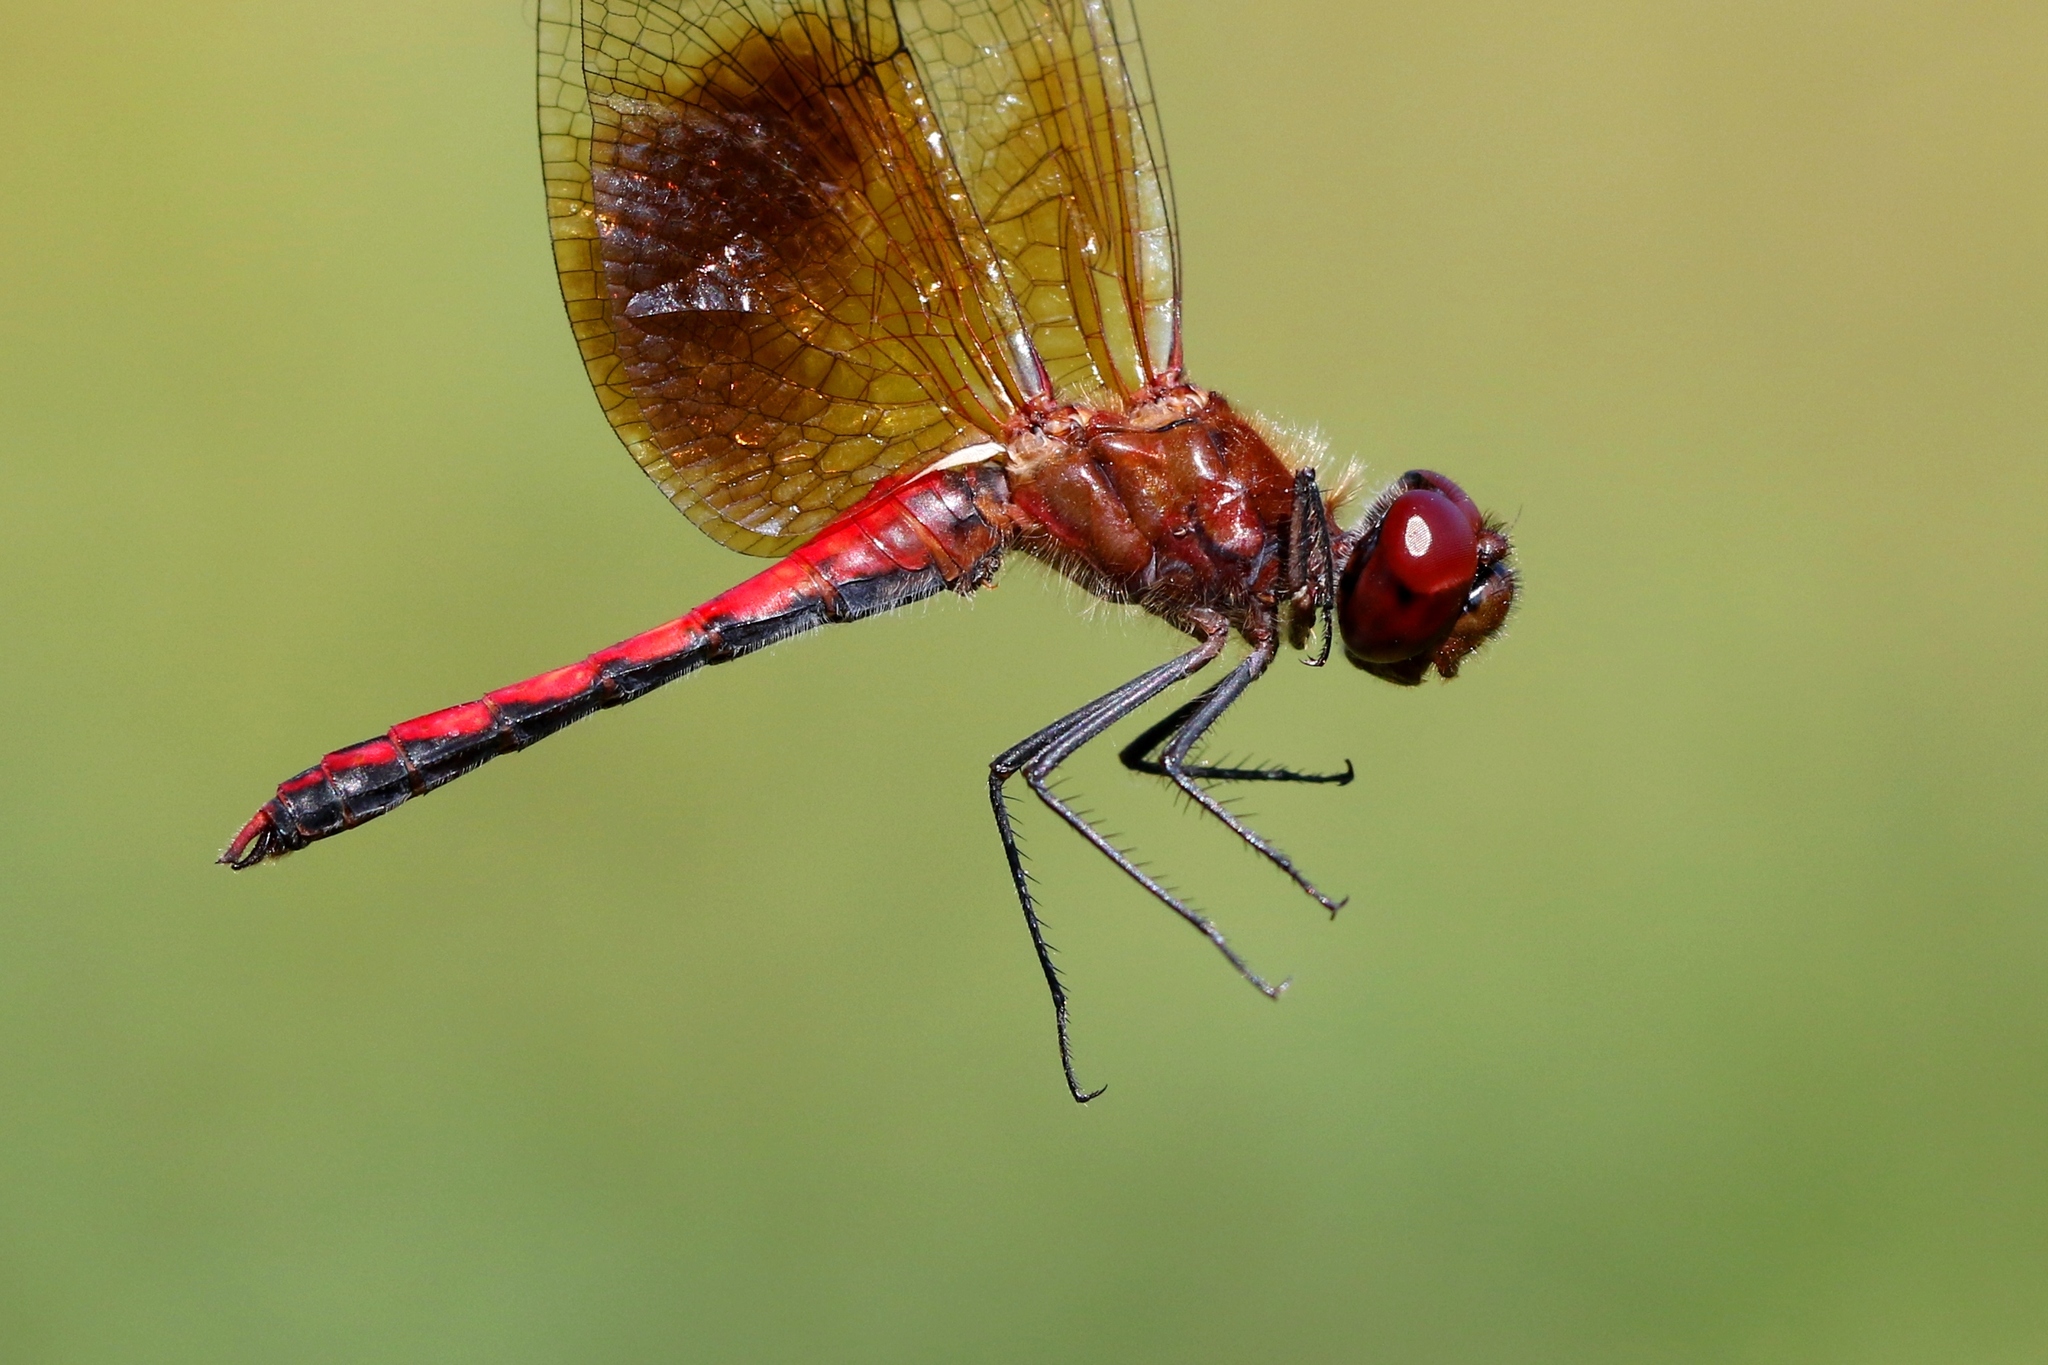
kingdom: Animalia
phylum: Arthropoda
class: Insecta
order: Odonata
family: Libellulidae
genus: Sympetrum
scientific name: Sympetrum semicinctum
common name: Band-winged meadowhawk
